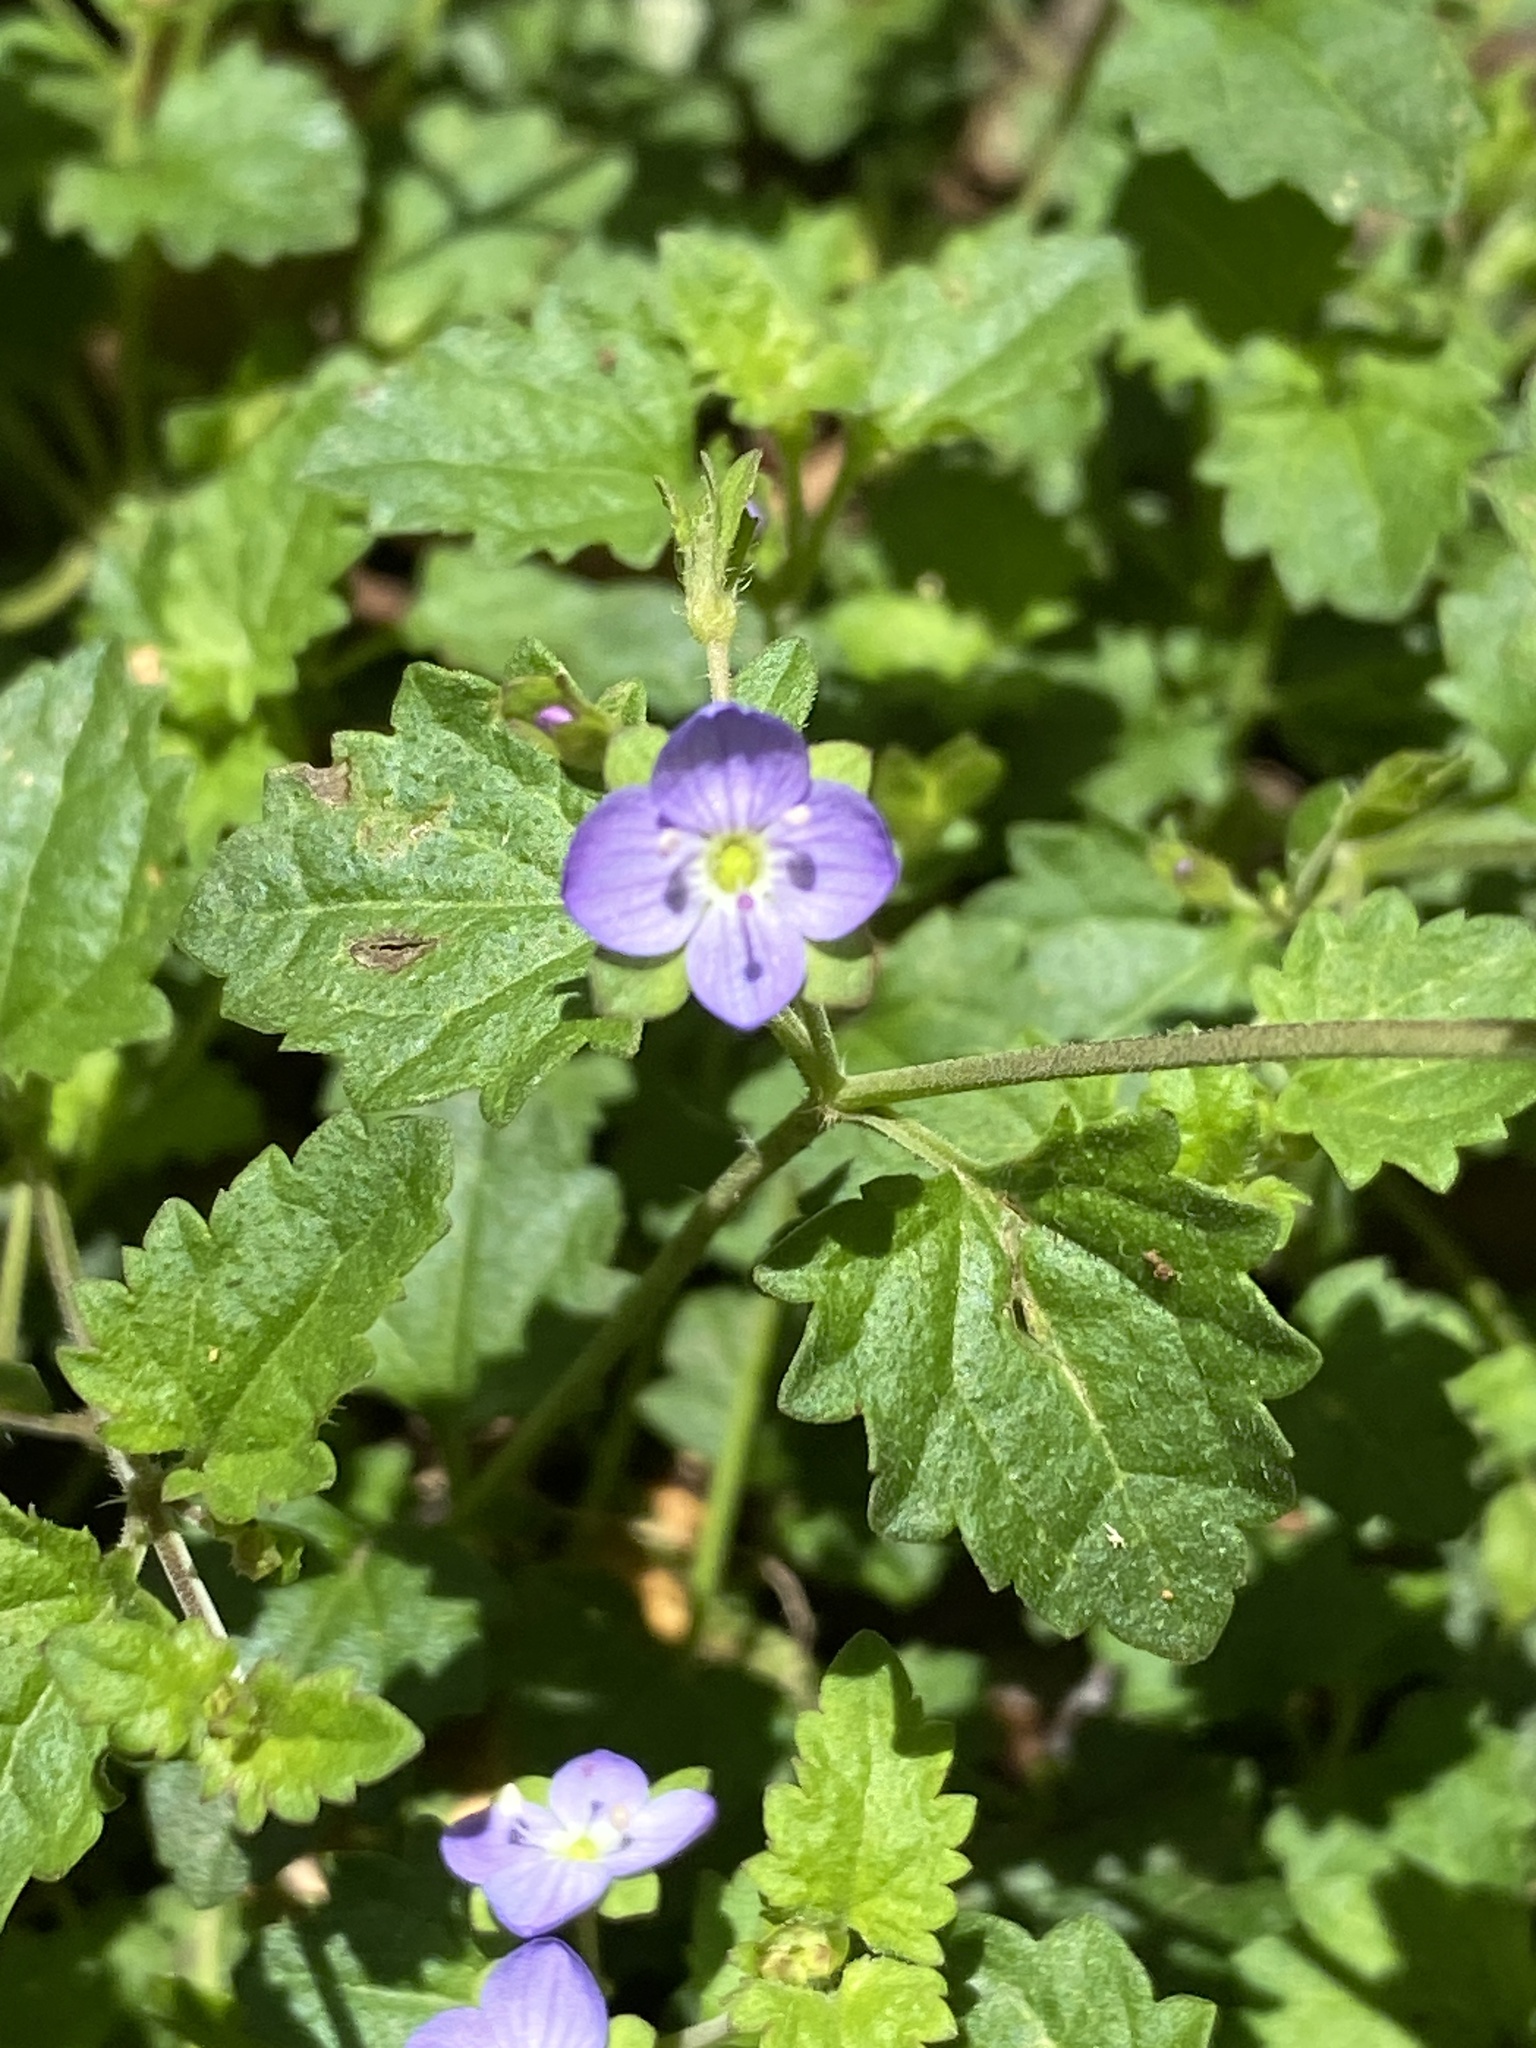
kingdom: Plantae
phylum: Tracheophyta
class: Magnoliopsida
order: Lamiales
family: Plantaginaceae
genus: Veronica
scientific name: Veronica plebeia
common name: Speedwell
